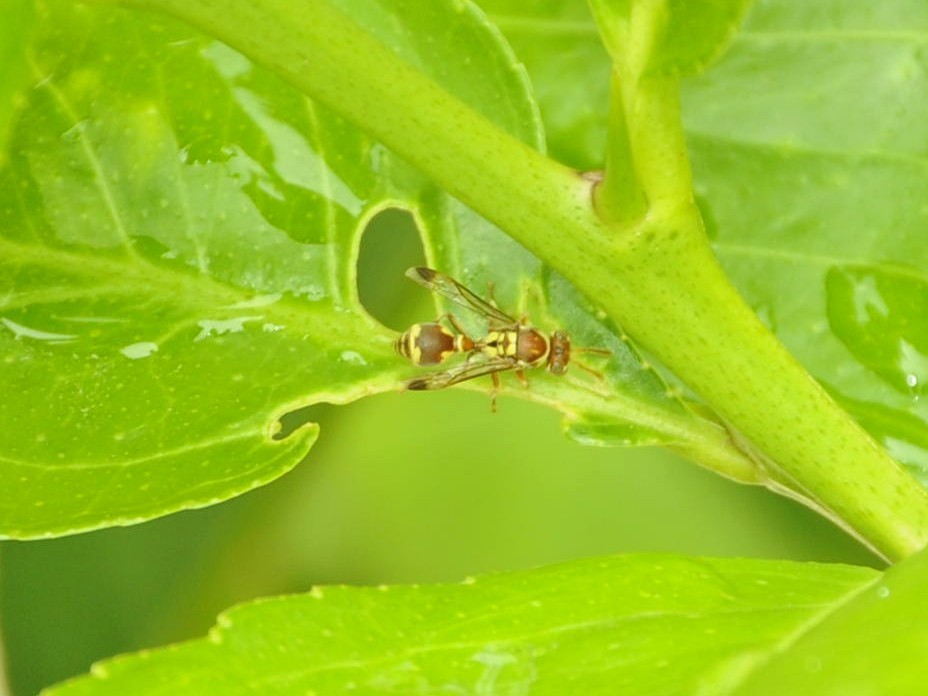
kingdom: Animalia
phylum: Arthropoda
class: Insecta
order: Hymenoptera
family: Vespidae
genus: Ropalidia
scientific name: Ropalidia cyathiformis
